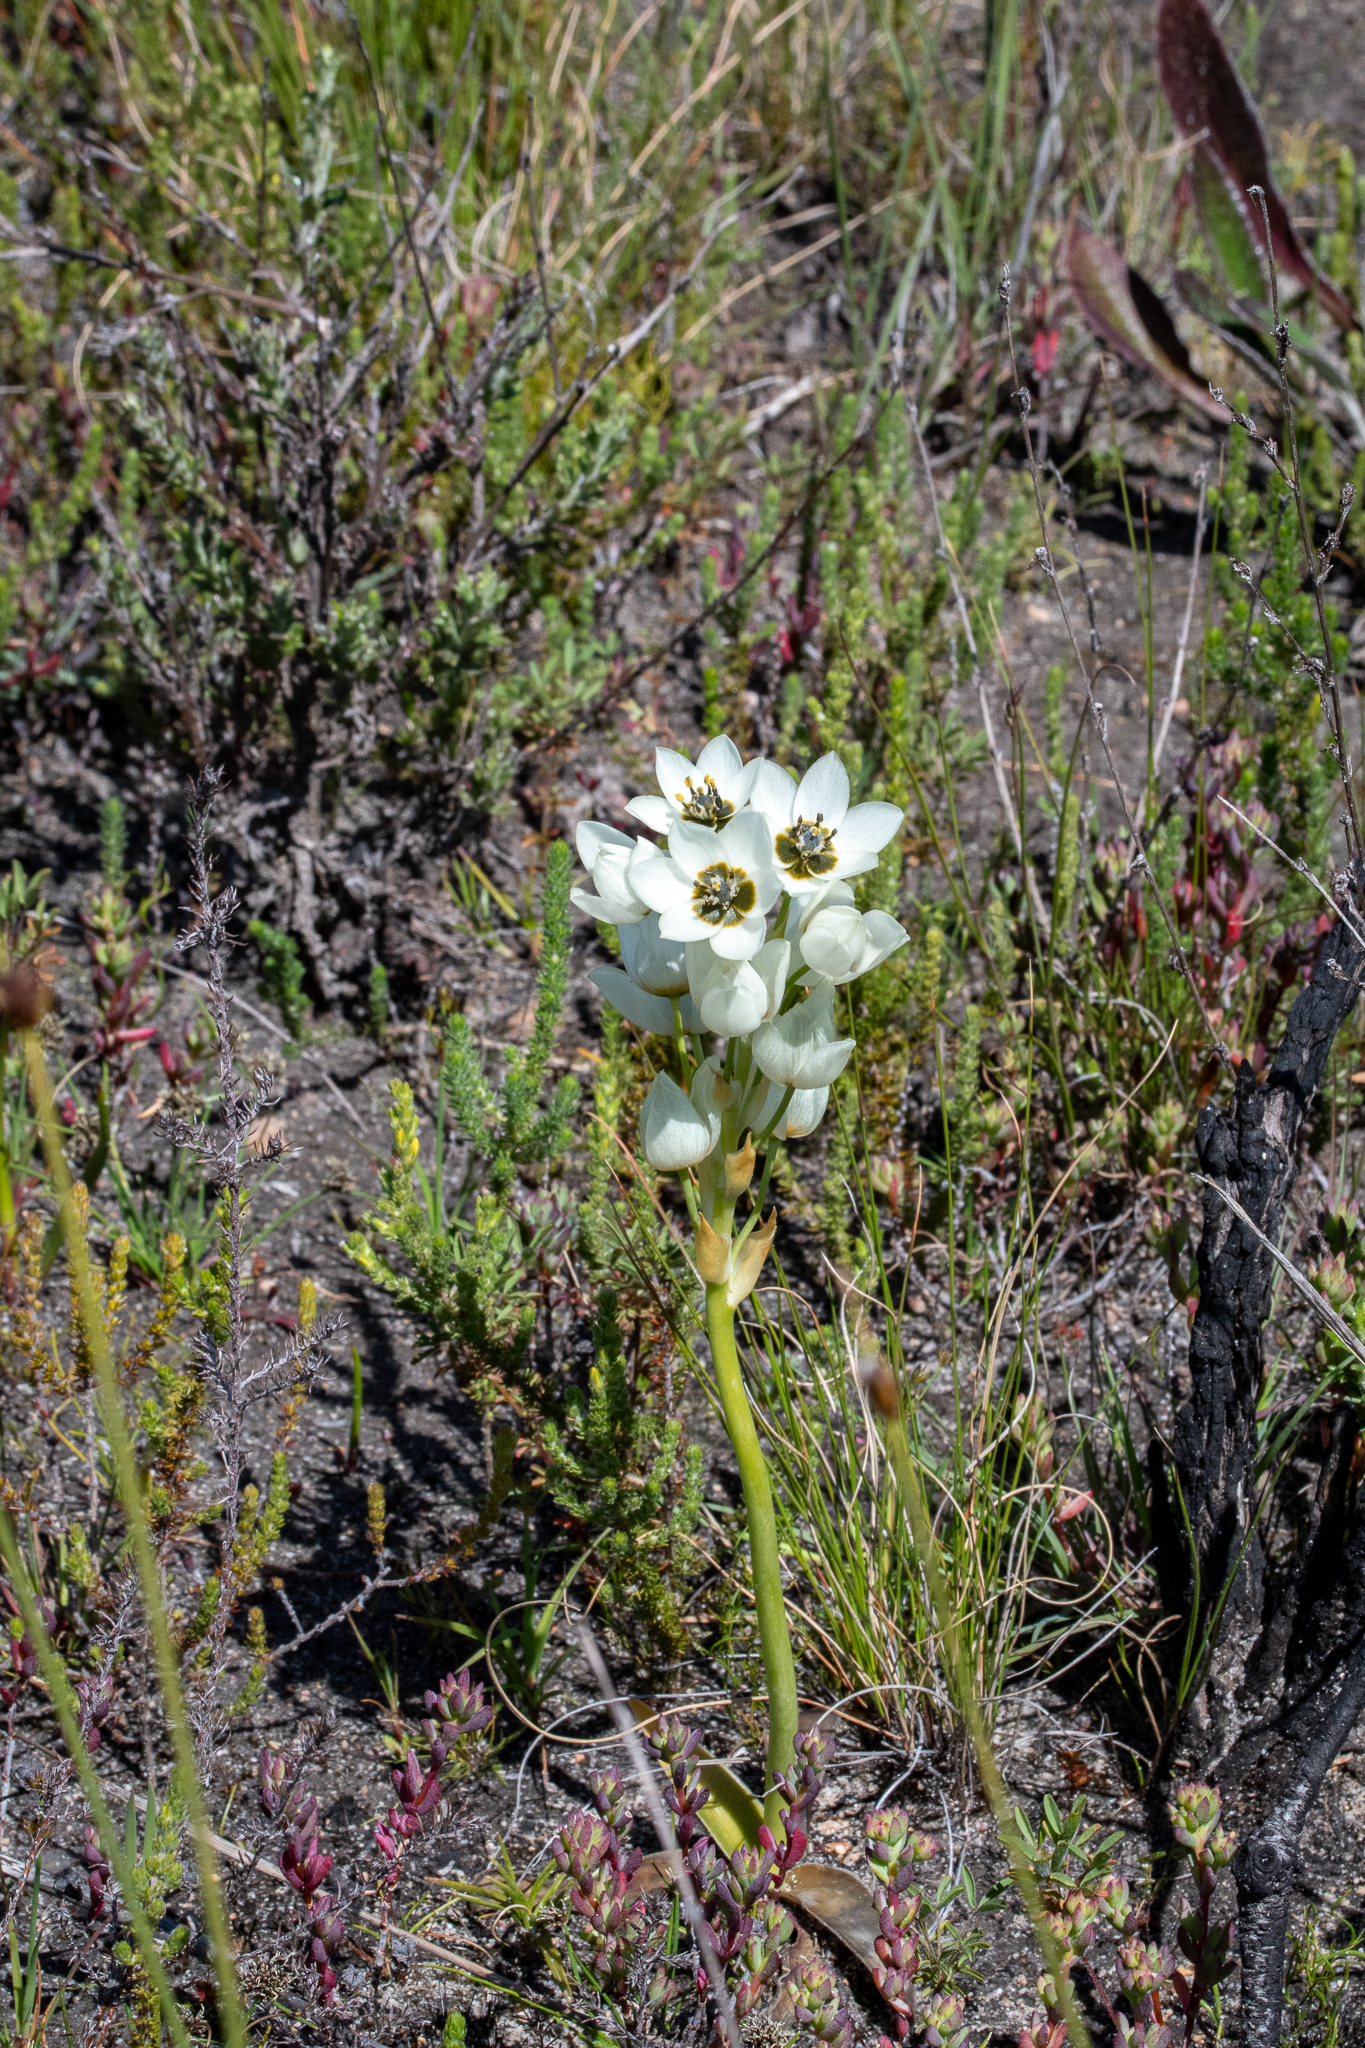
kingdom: Plantae
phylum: Tracheophyta
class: Liliopsida
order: Asparagales
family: Asparagaceae
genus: Ornithogalum
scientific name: Ornithogalum thyrsoides
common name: Chincherinchee
